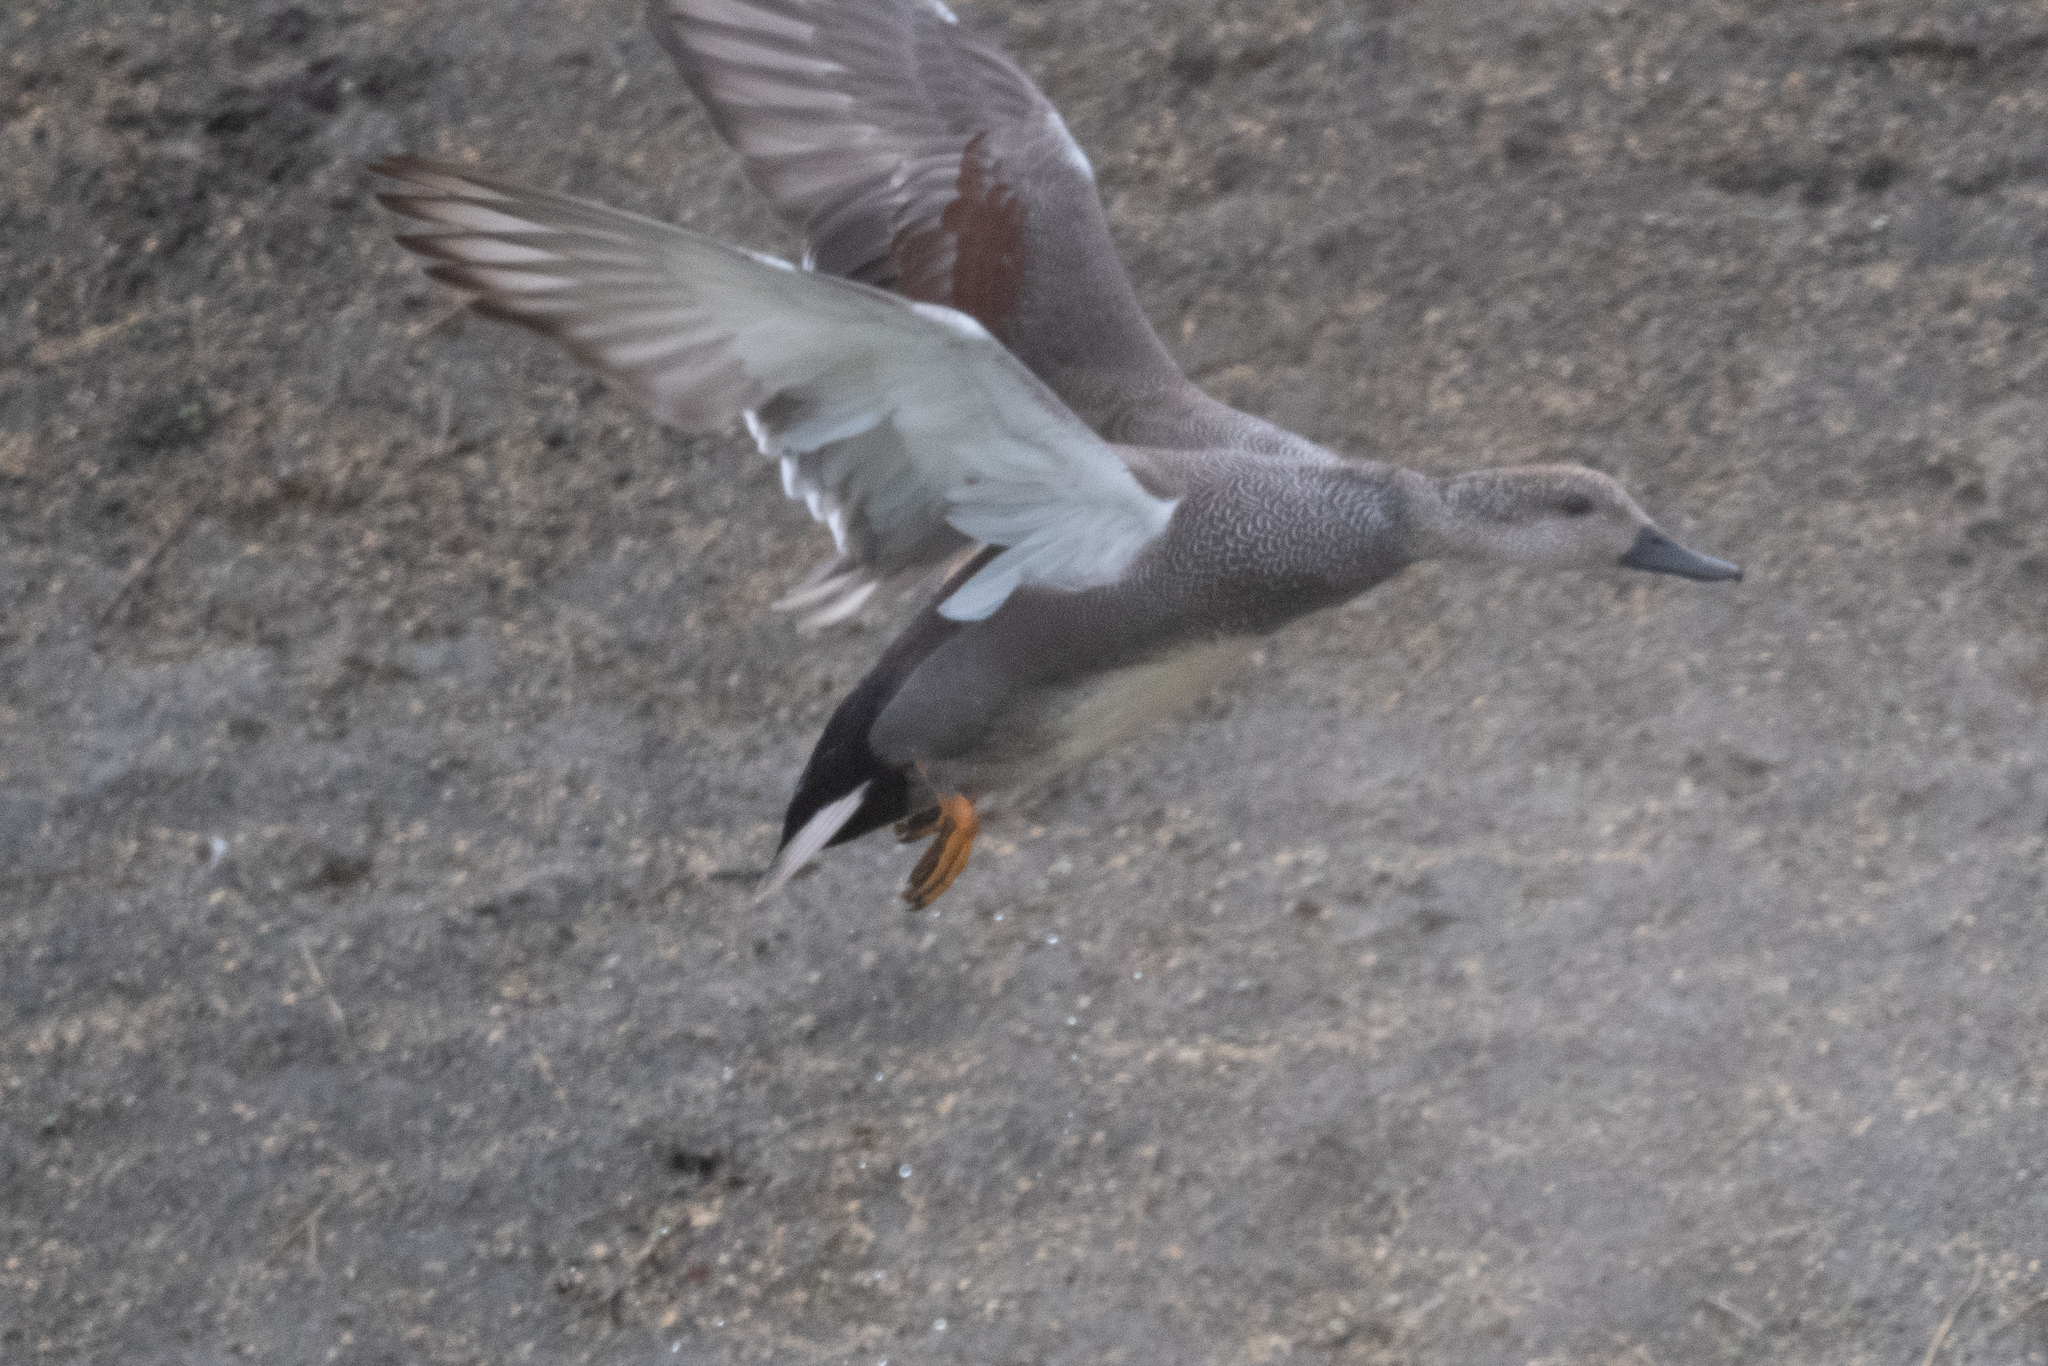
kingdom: Animalia
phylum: Chordata
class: Aves
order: Anseriformes
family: Anatidae
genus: Mareca
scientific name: Mareca americana
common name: American wigeon
